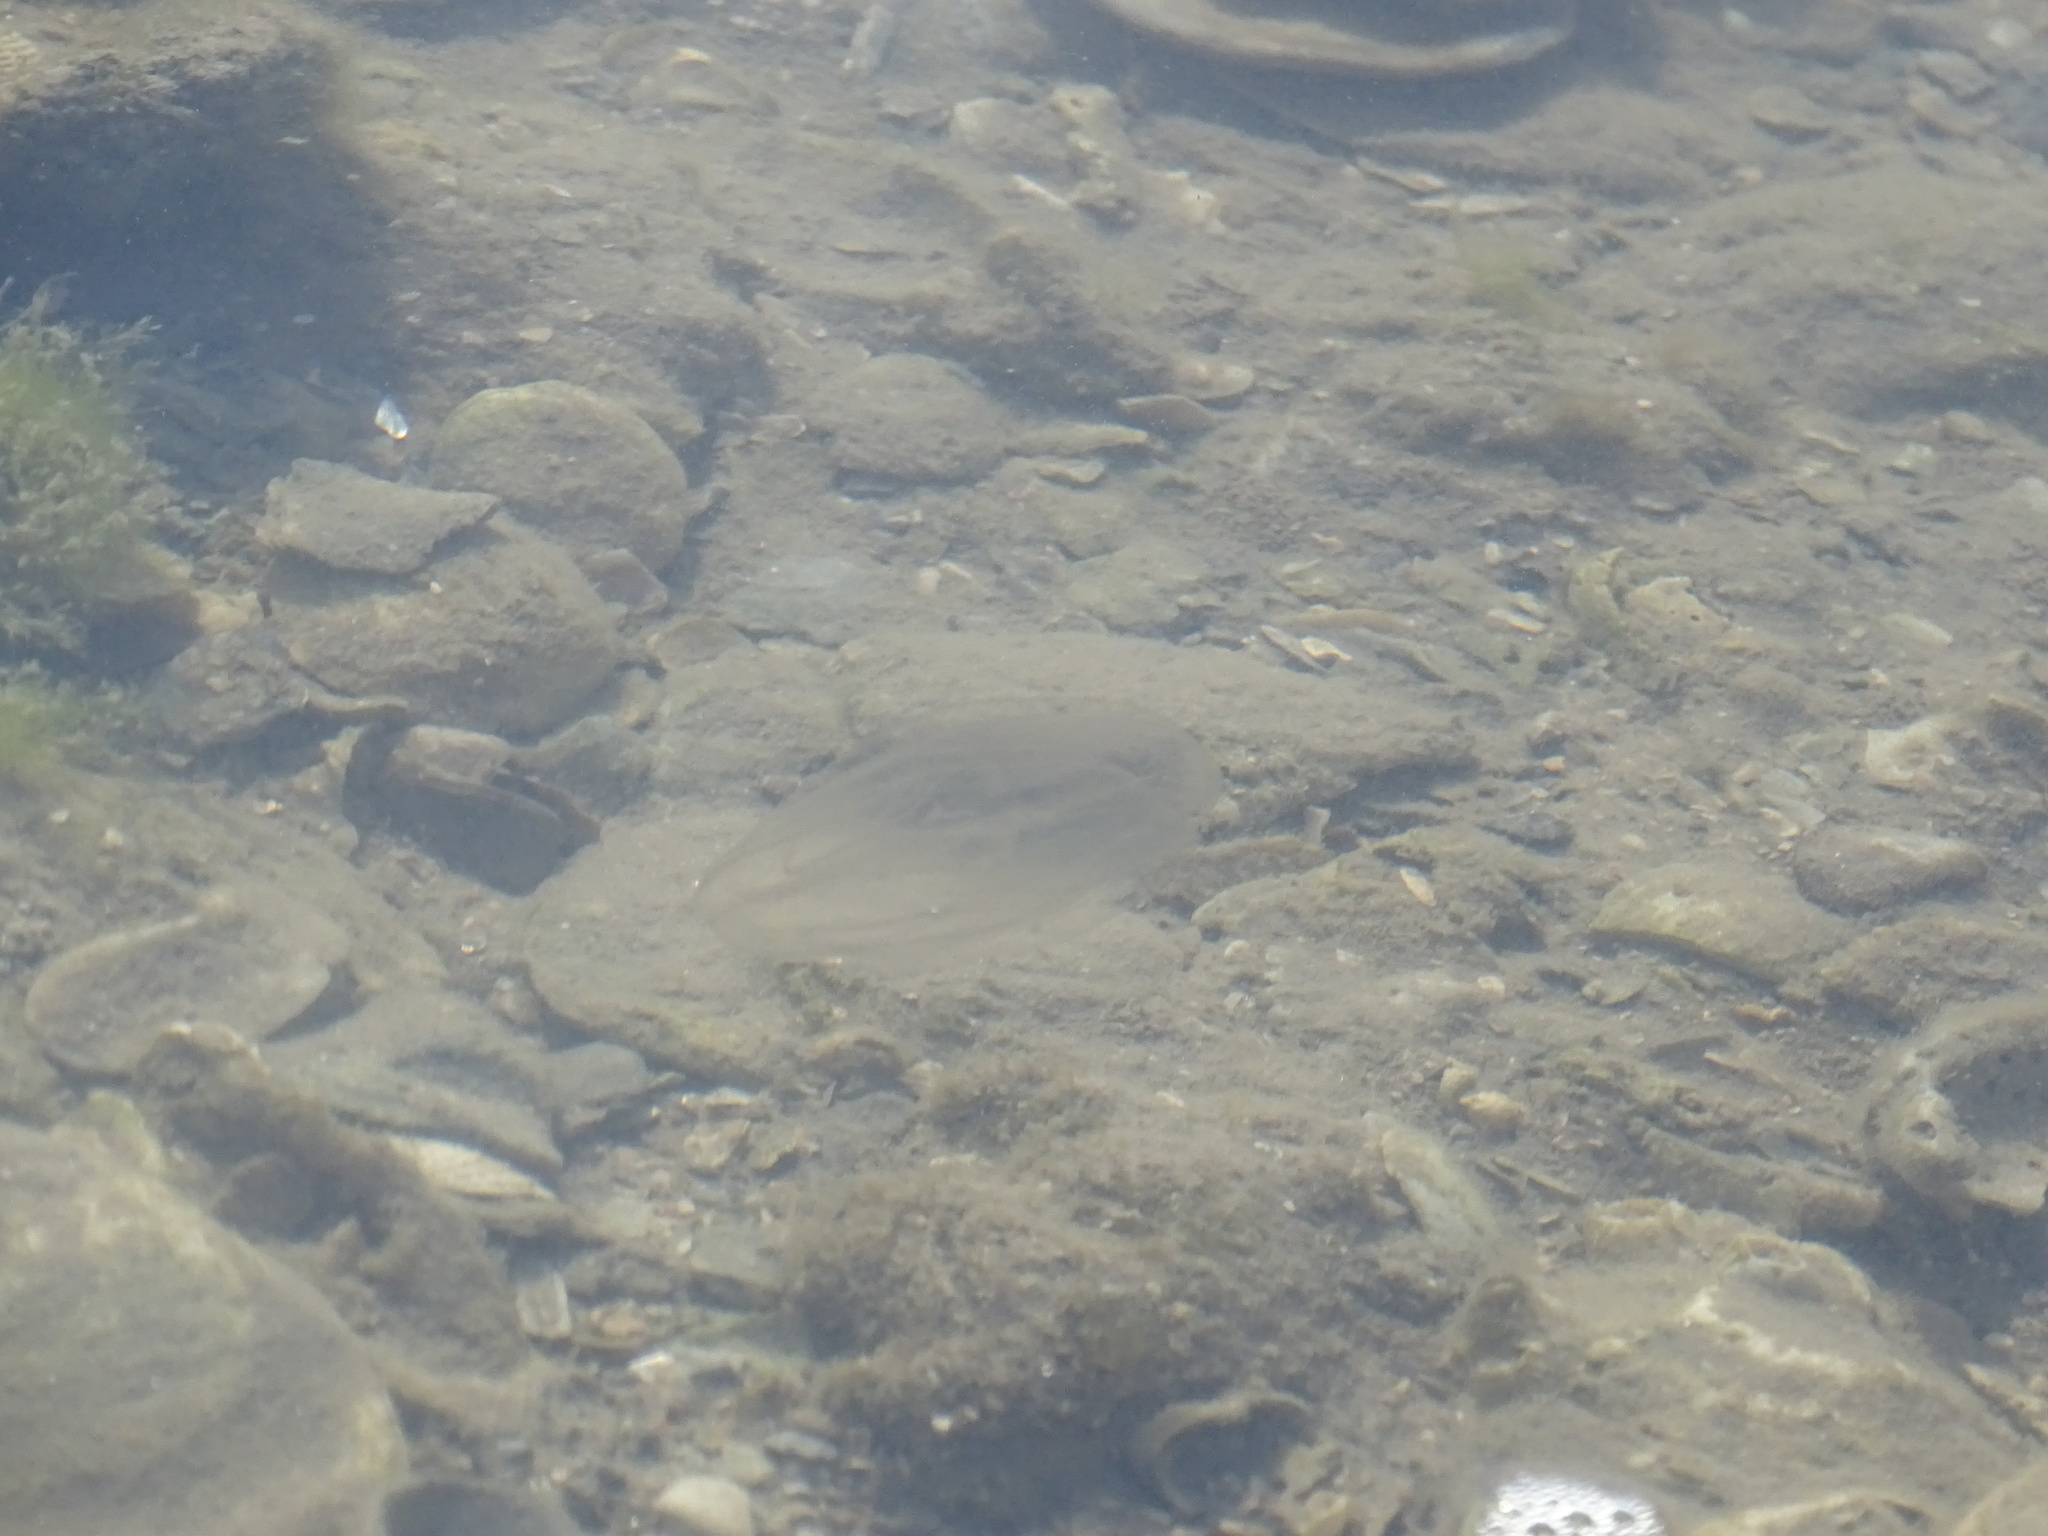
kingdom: Animalia
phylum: Ctenophora
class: Tentaculata
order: Lobata
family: Bolinopsidae
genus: Mnemiopsis
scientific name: Mnemiopsis leidyi
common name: American comb jelly
